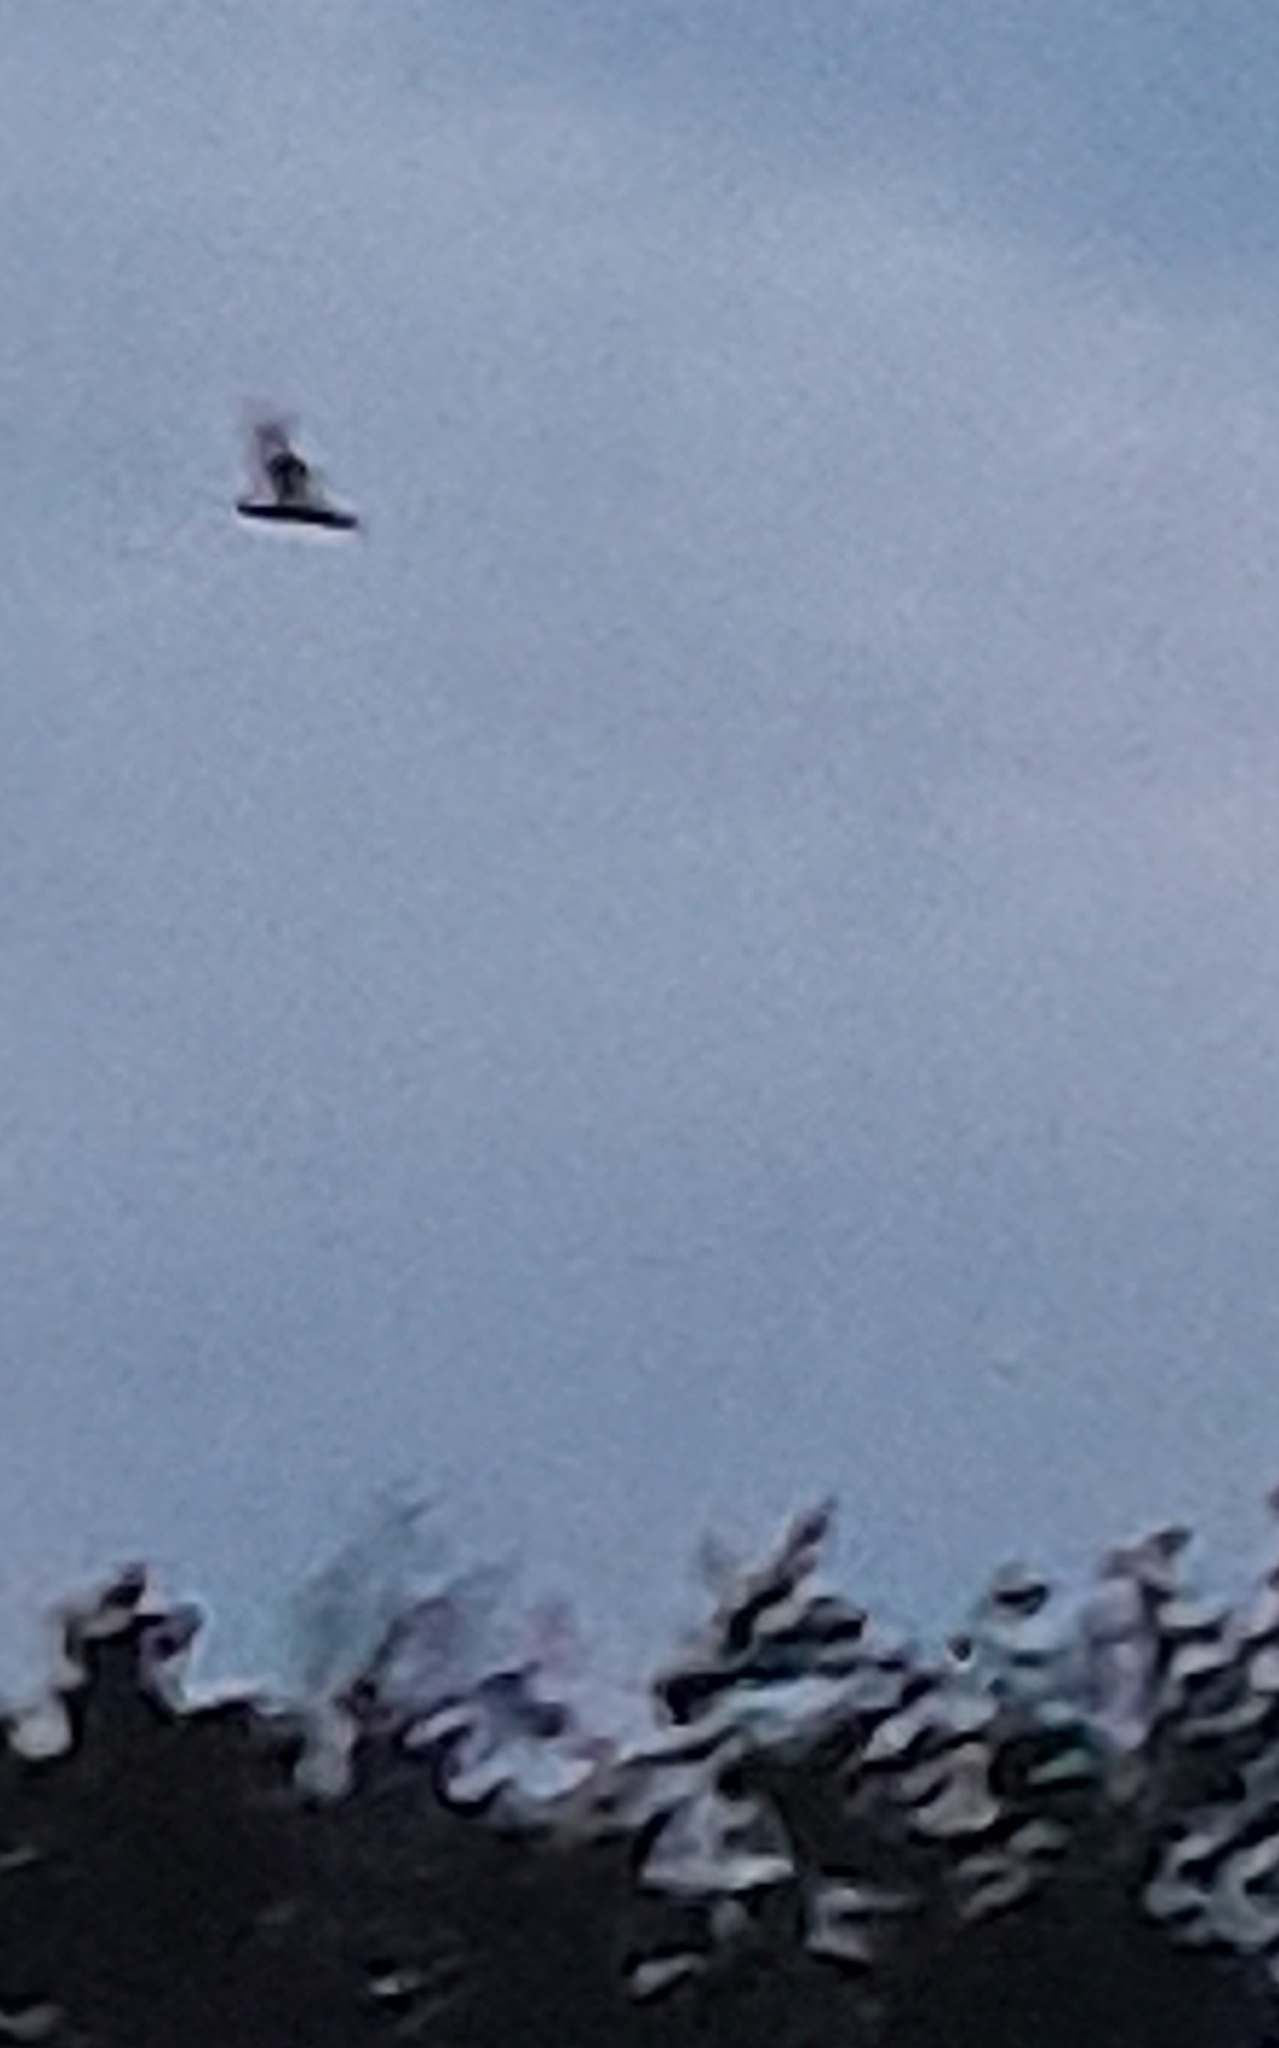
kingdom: Animalia
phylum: Chordata
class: Aves
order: Caprimulgiformes
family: Caprimulgidae
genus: Caprimulgus
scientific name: Caprimulgus europaeus
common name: European nightjar
